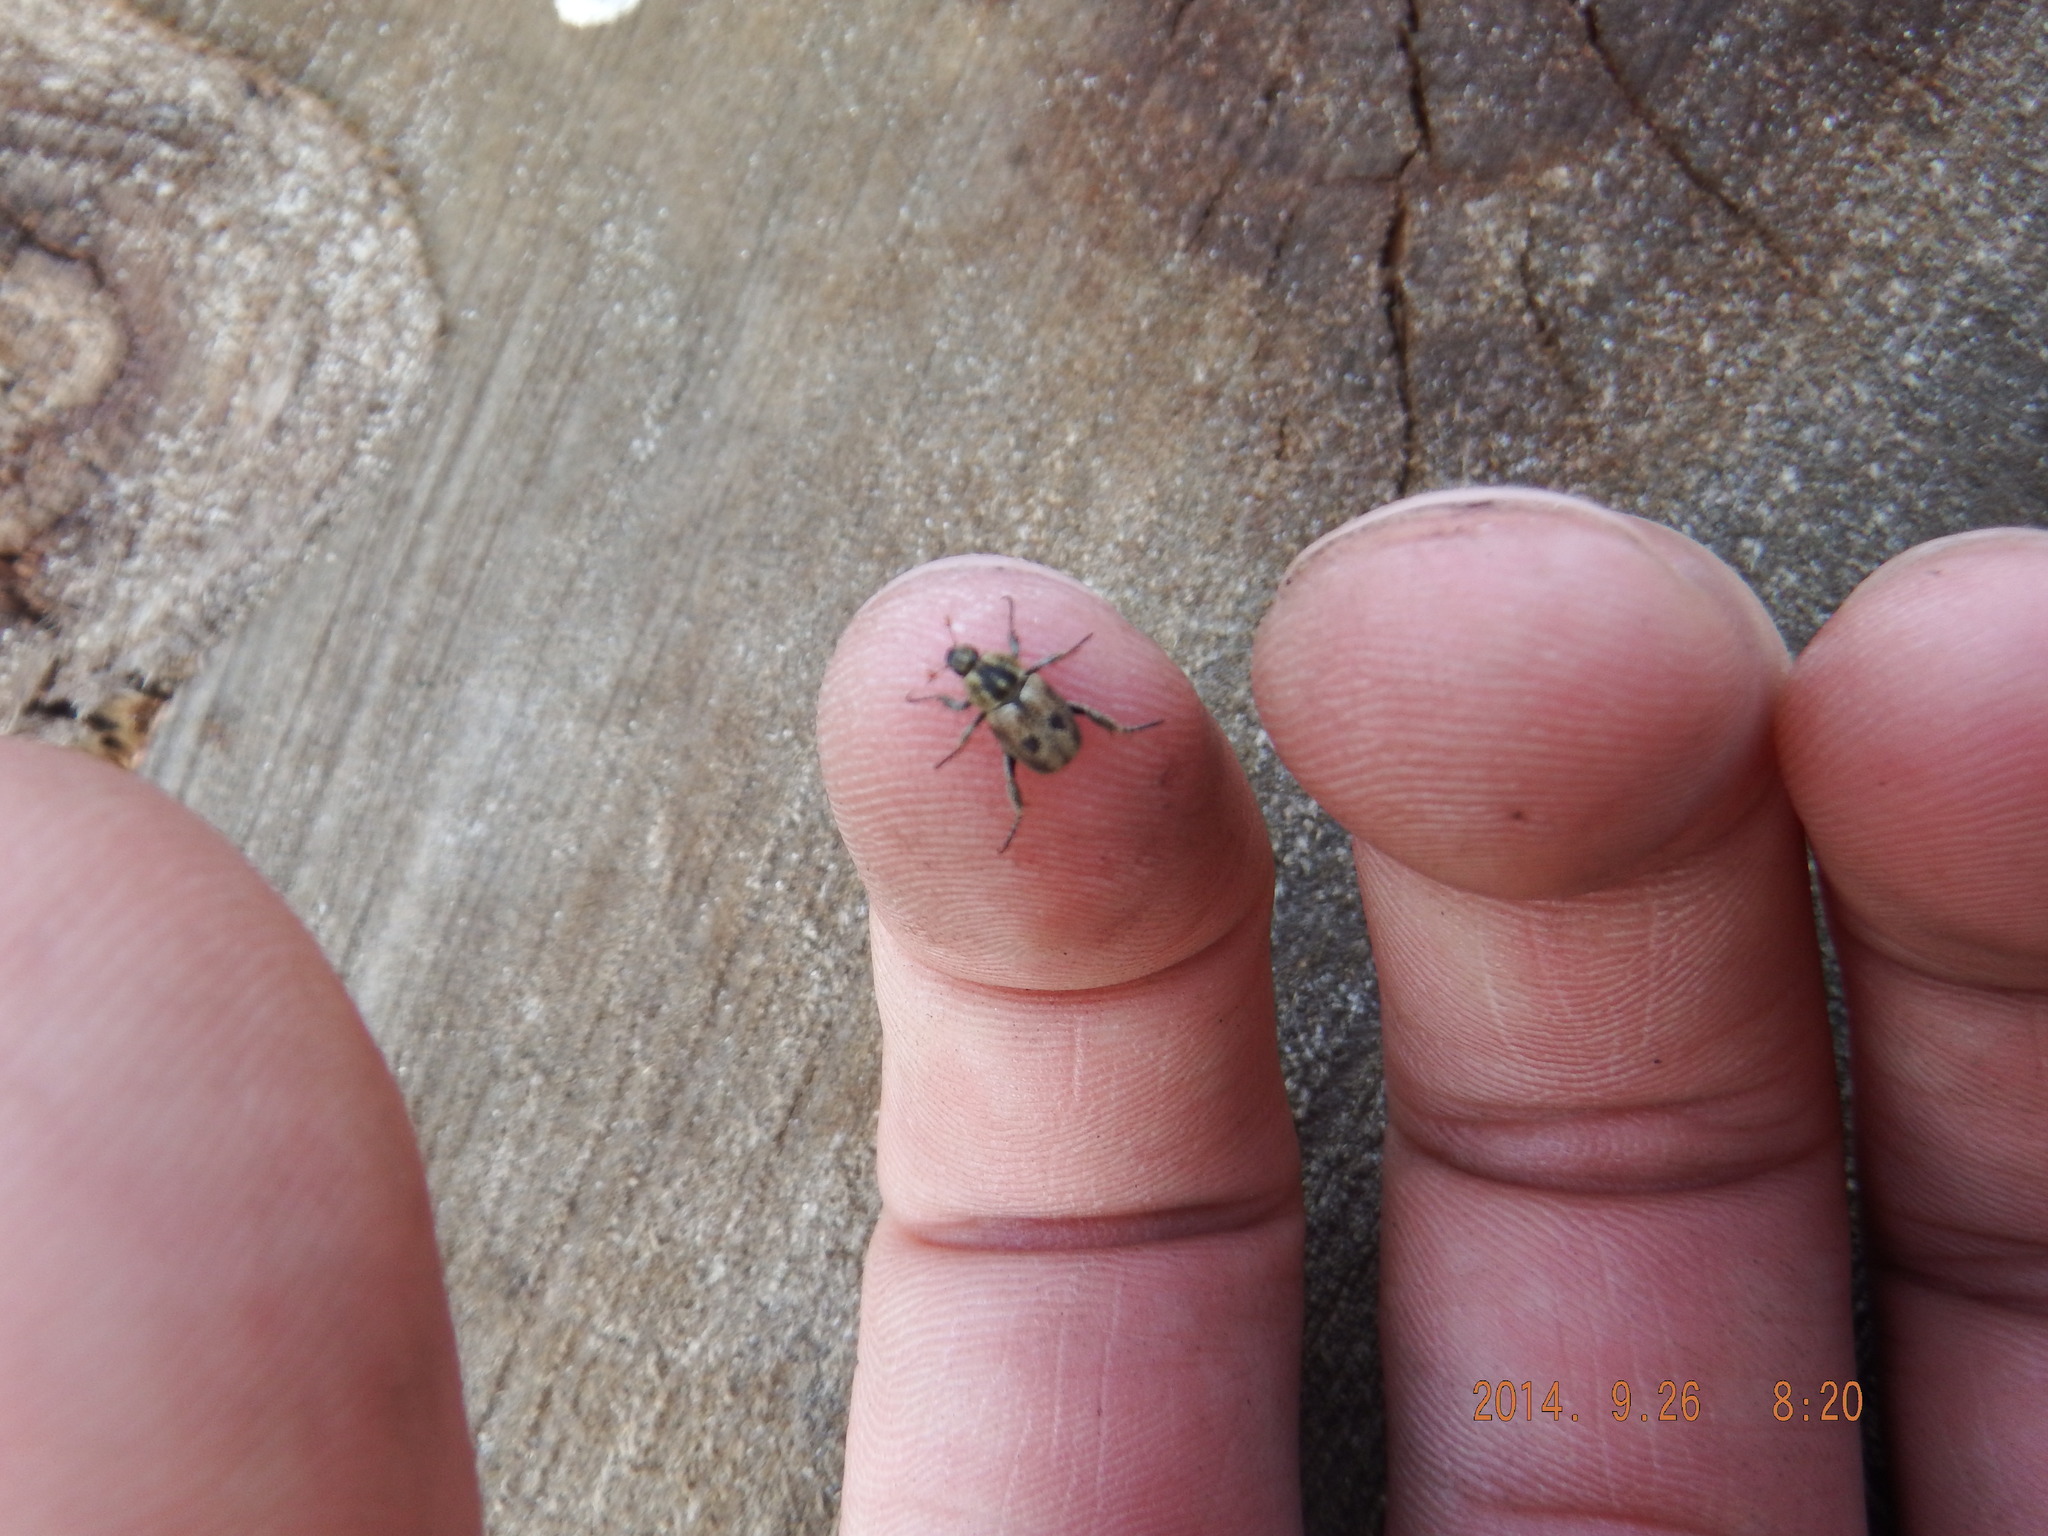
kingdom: Animalia
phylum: Arthropoda
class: Insecta
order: Coleoptera
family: Scarabaeidae
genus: Stripsipher
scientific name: Stripsipher spectralis
